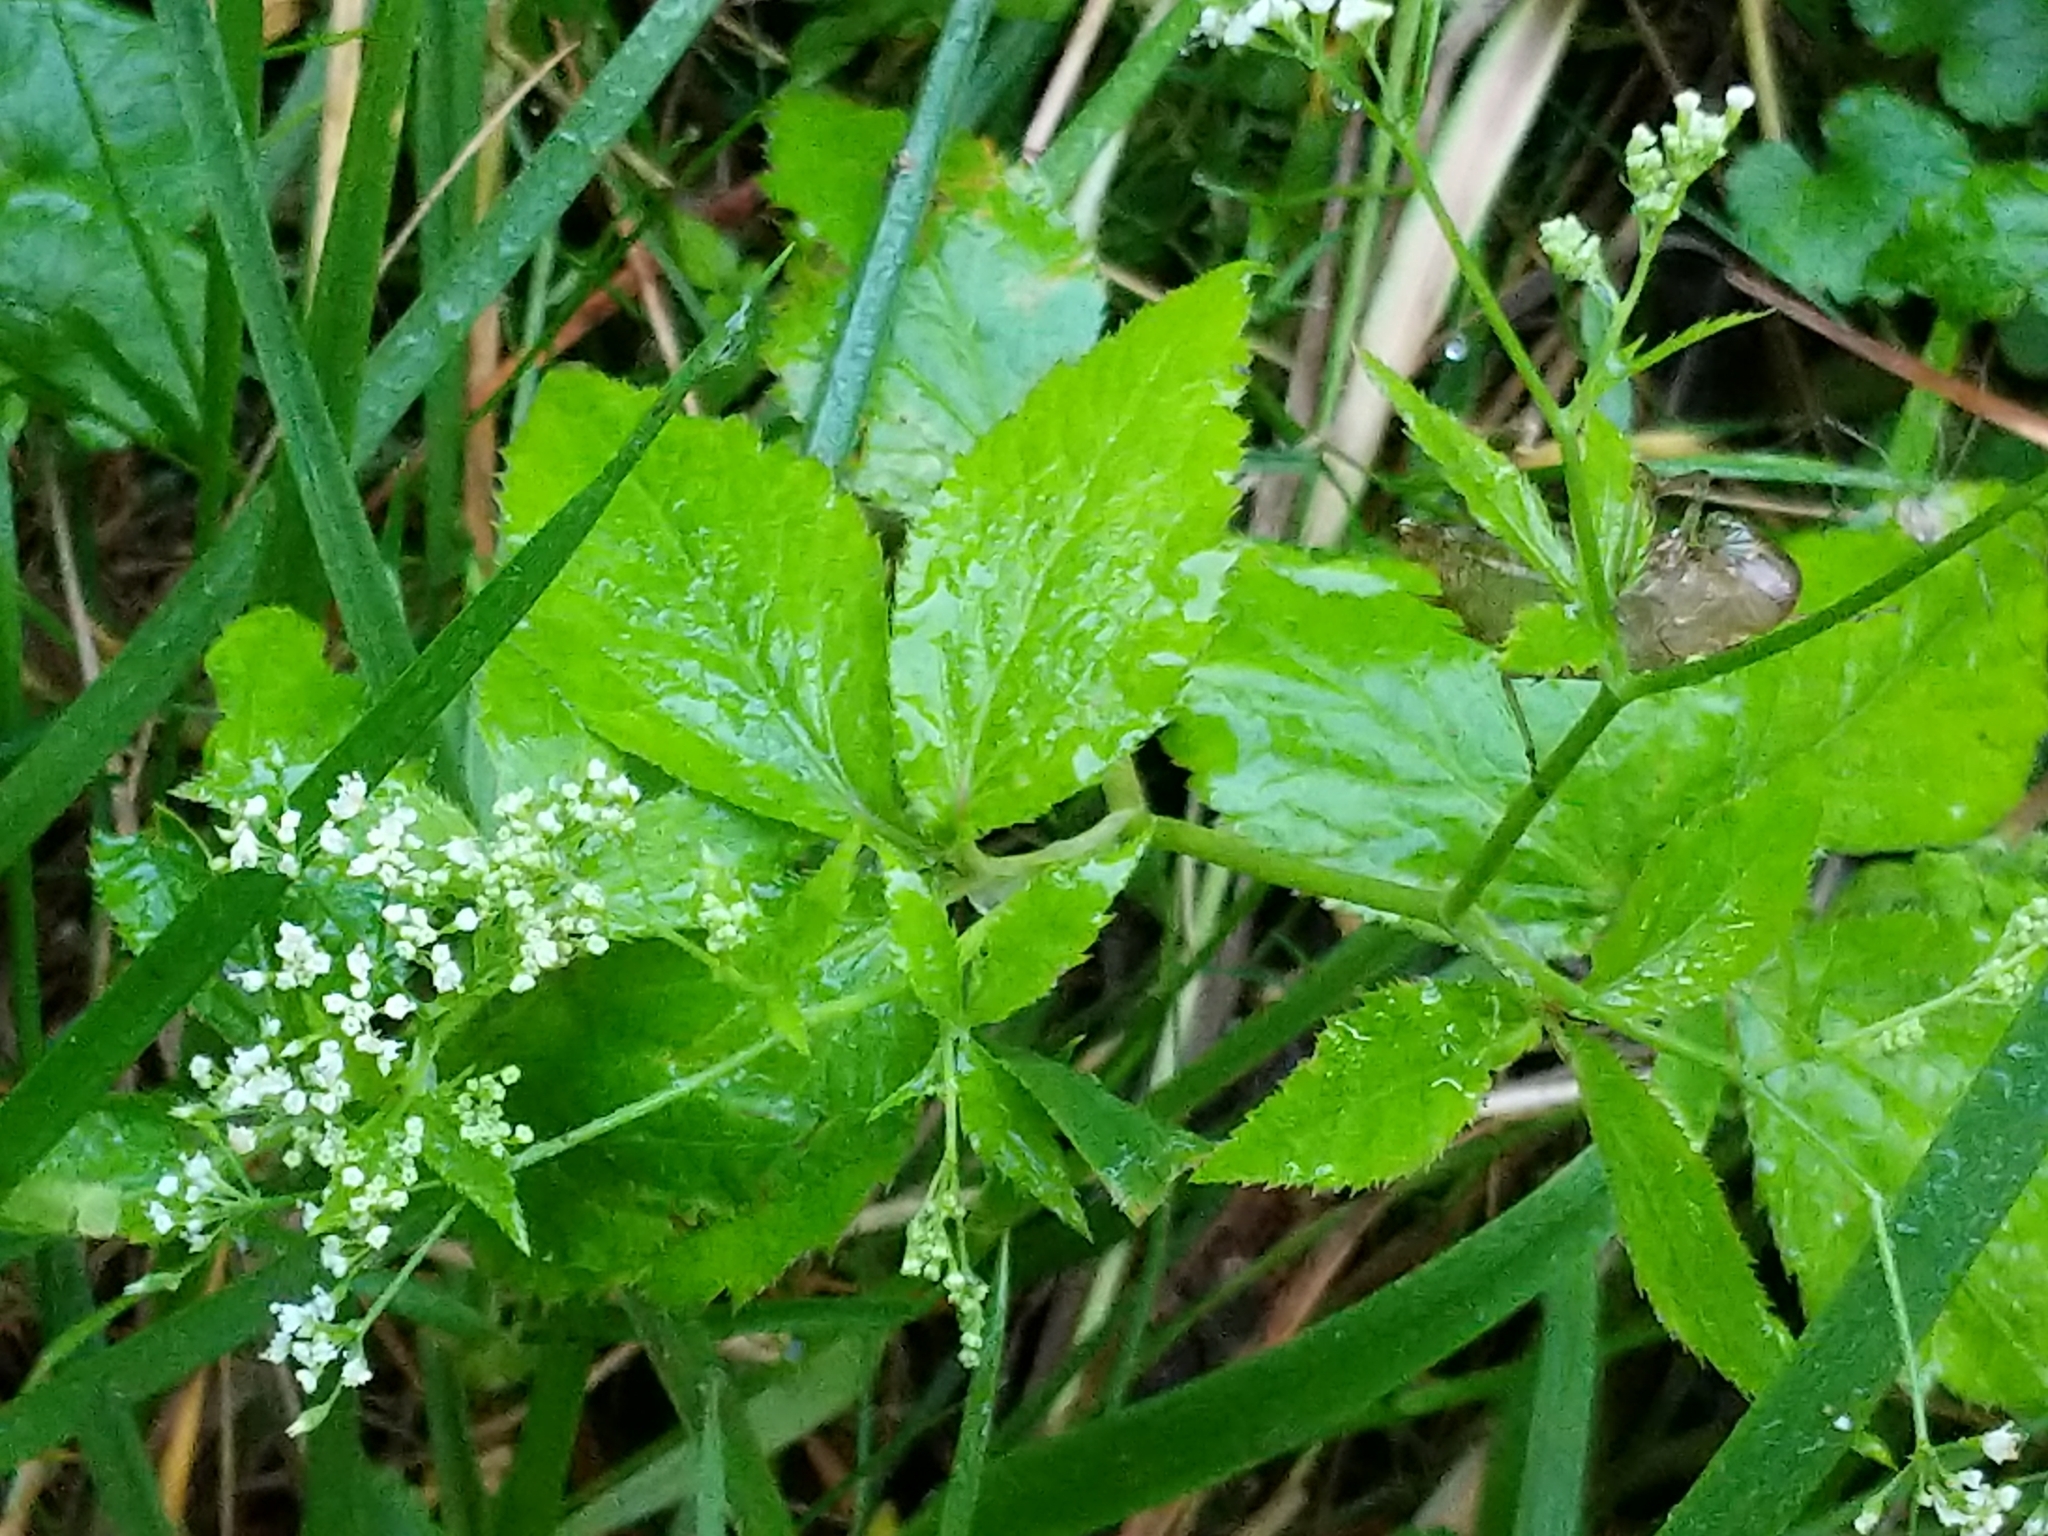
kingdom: Plantae
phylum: Tracheophyta
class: Magnoliopsida
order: Apiales
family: Apiaceae
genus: Cryptotaenia
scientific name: Cryptotaenia canadensis
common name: Honewort
